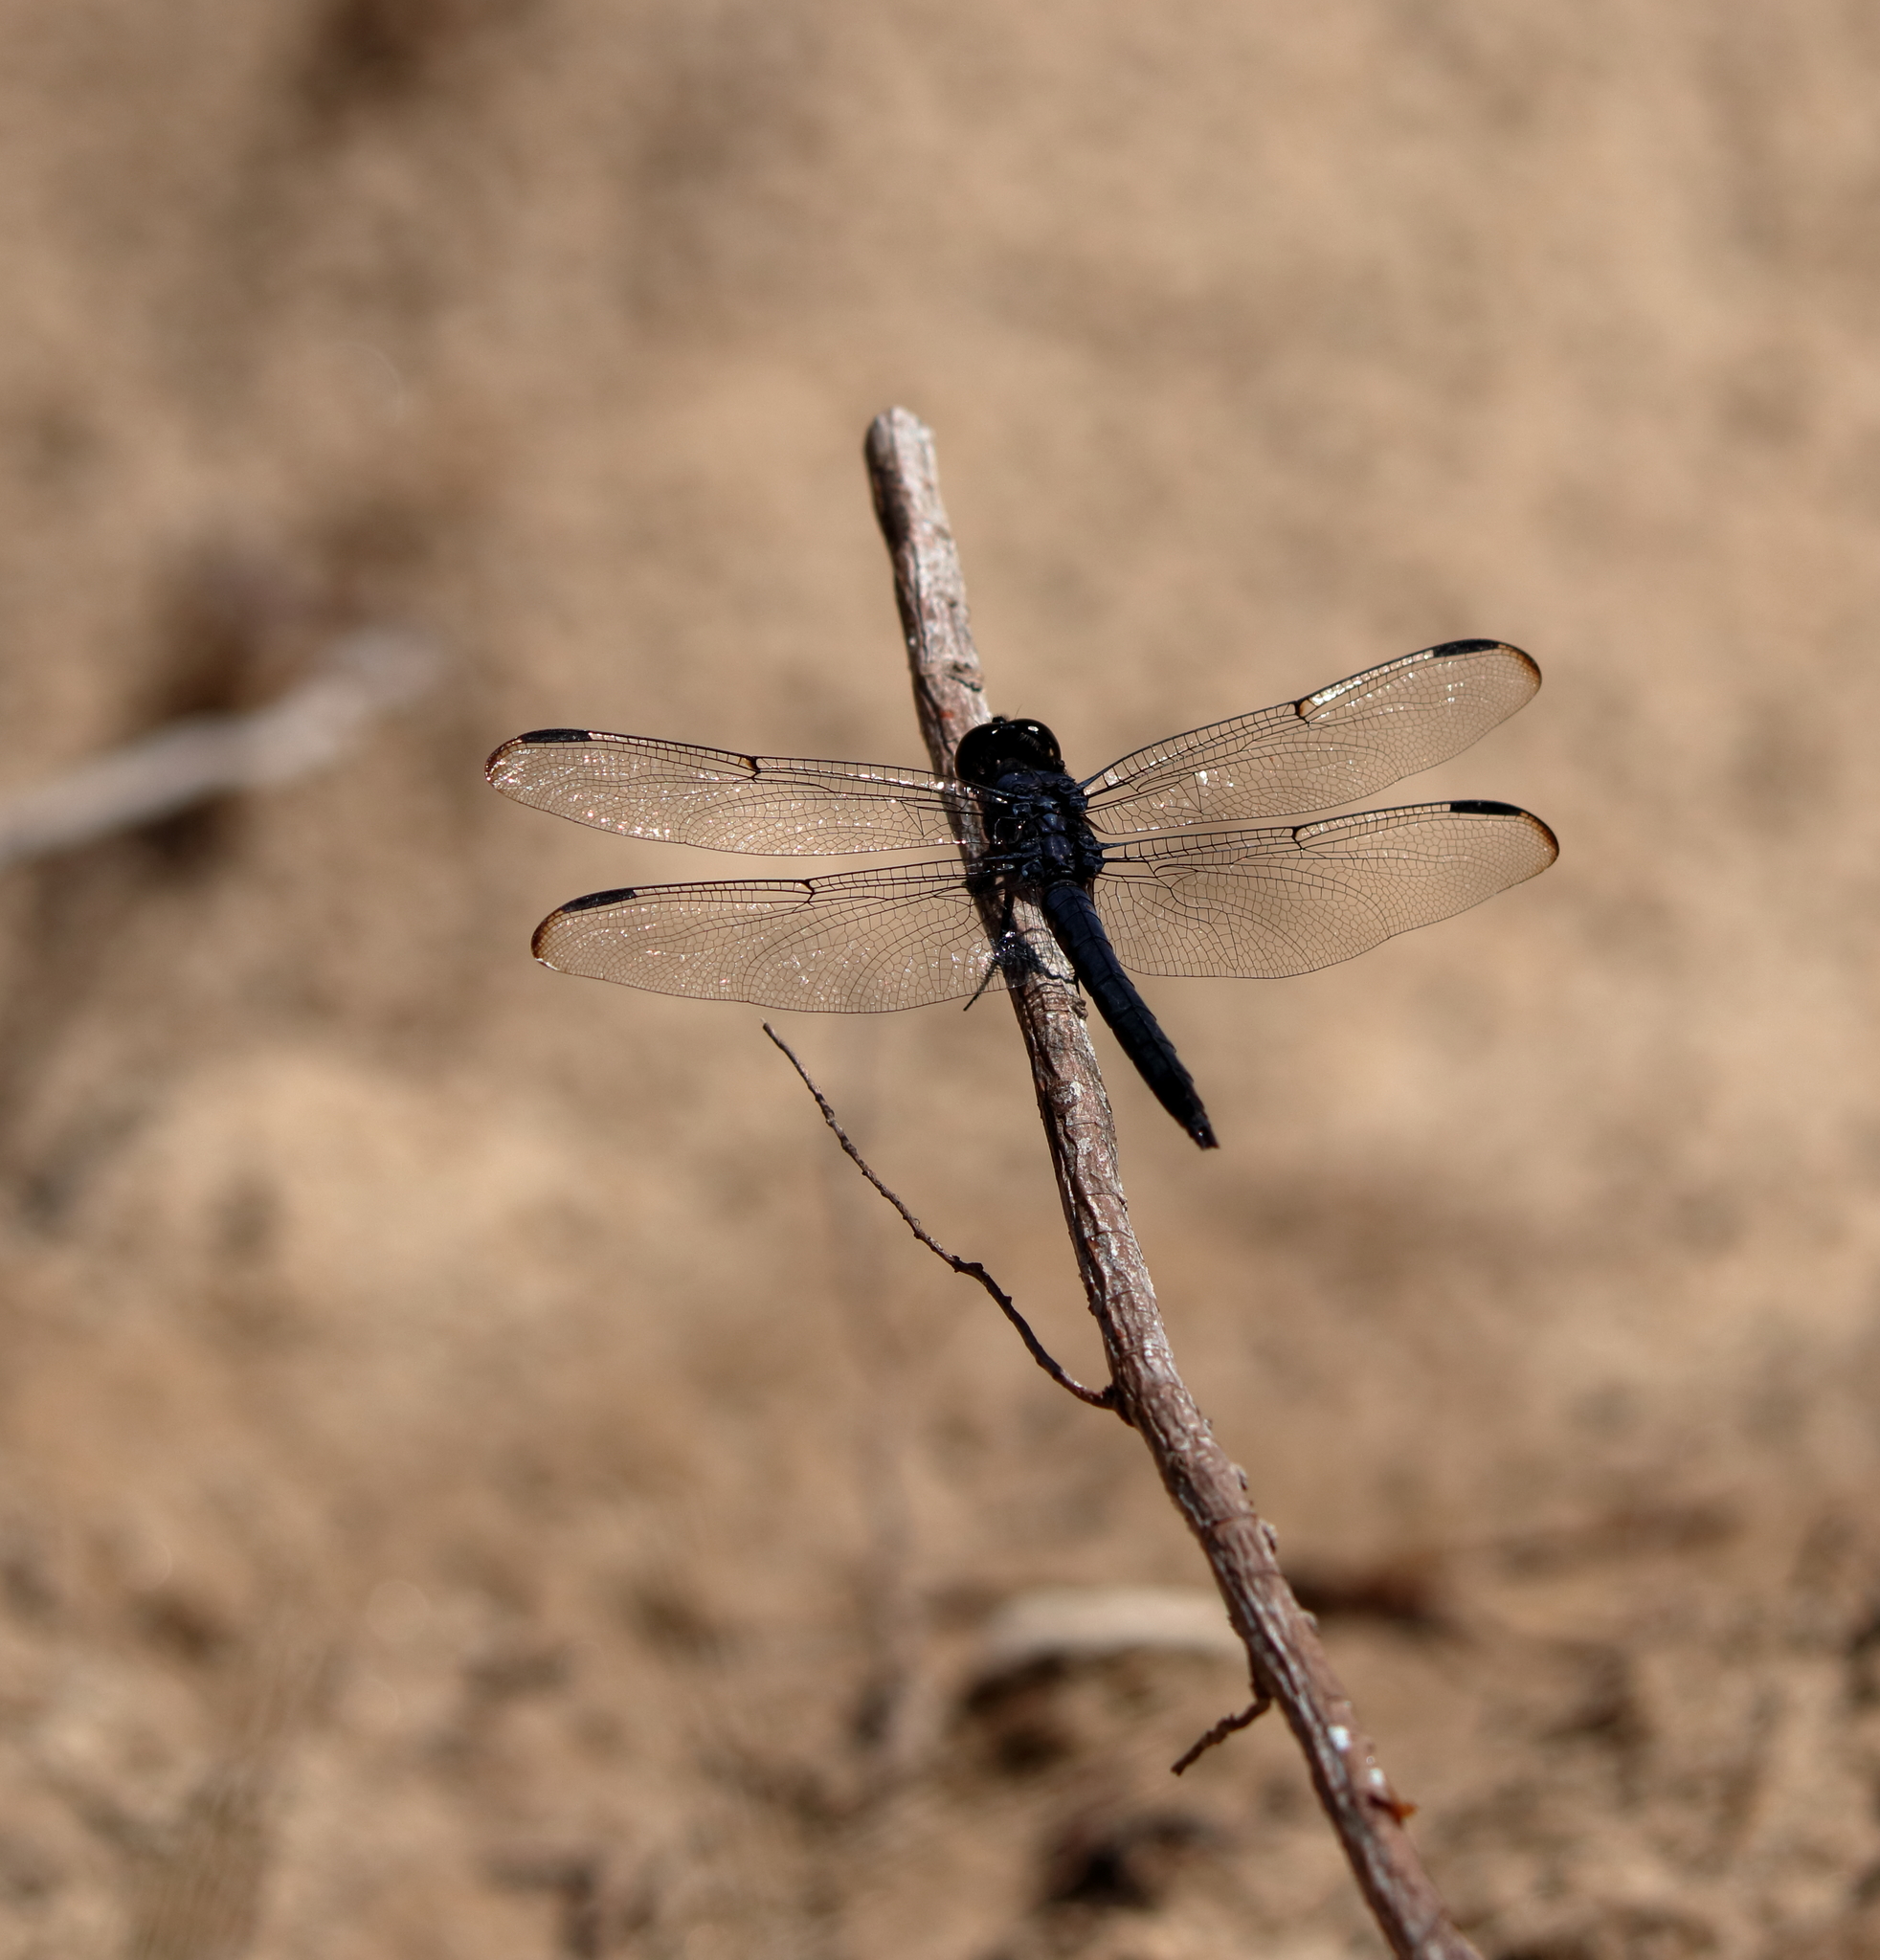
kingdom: Animalia
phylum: Arthropoda
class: Insecta
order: Odonata
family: Libellulidae
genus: Libellula
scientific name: Libellula incesta
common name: Slaty skimmer
